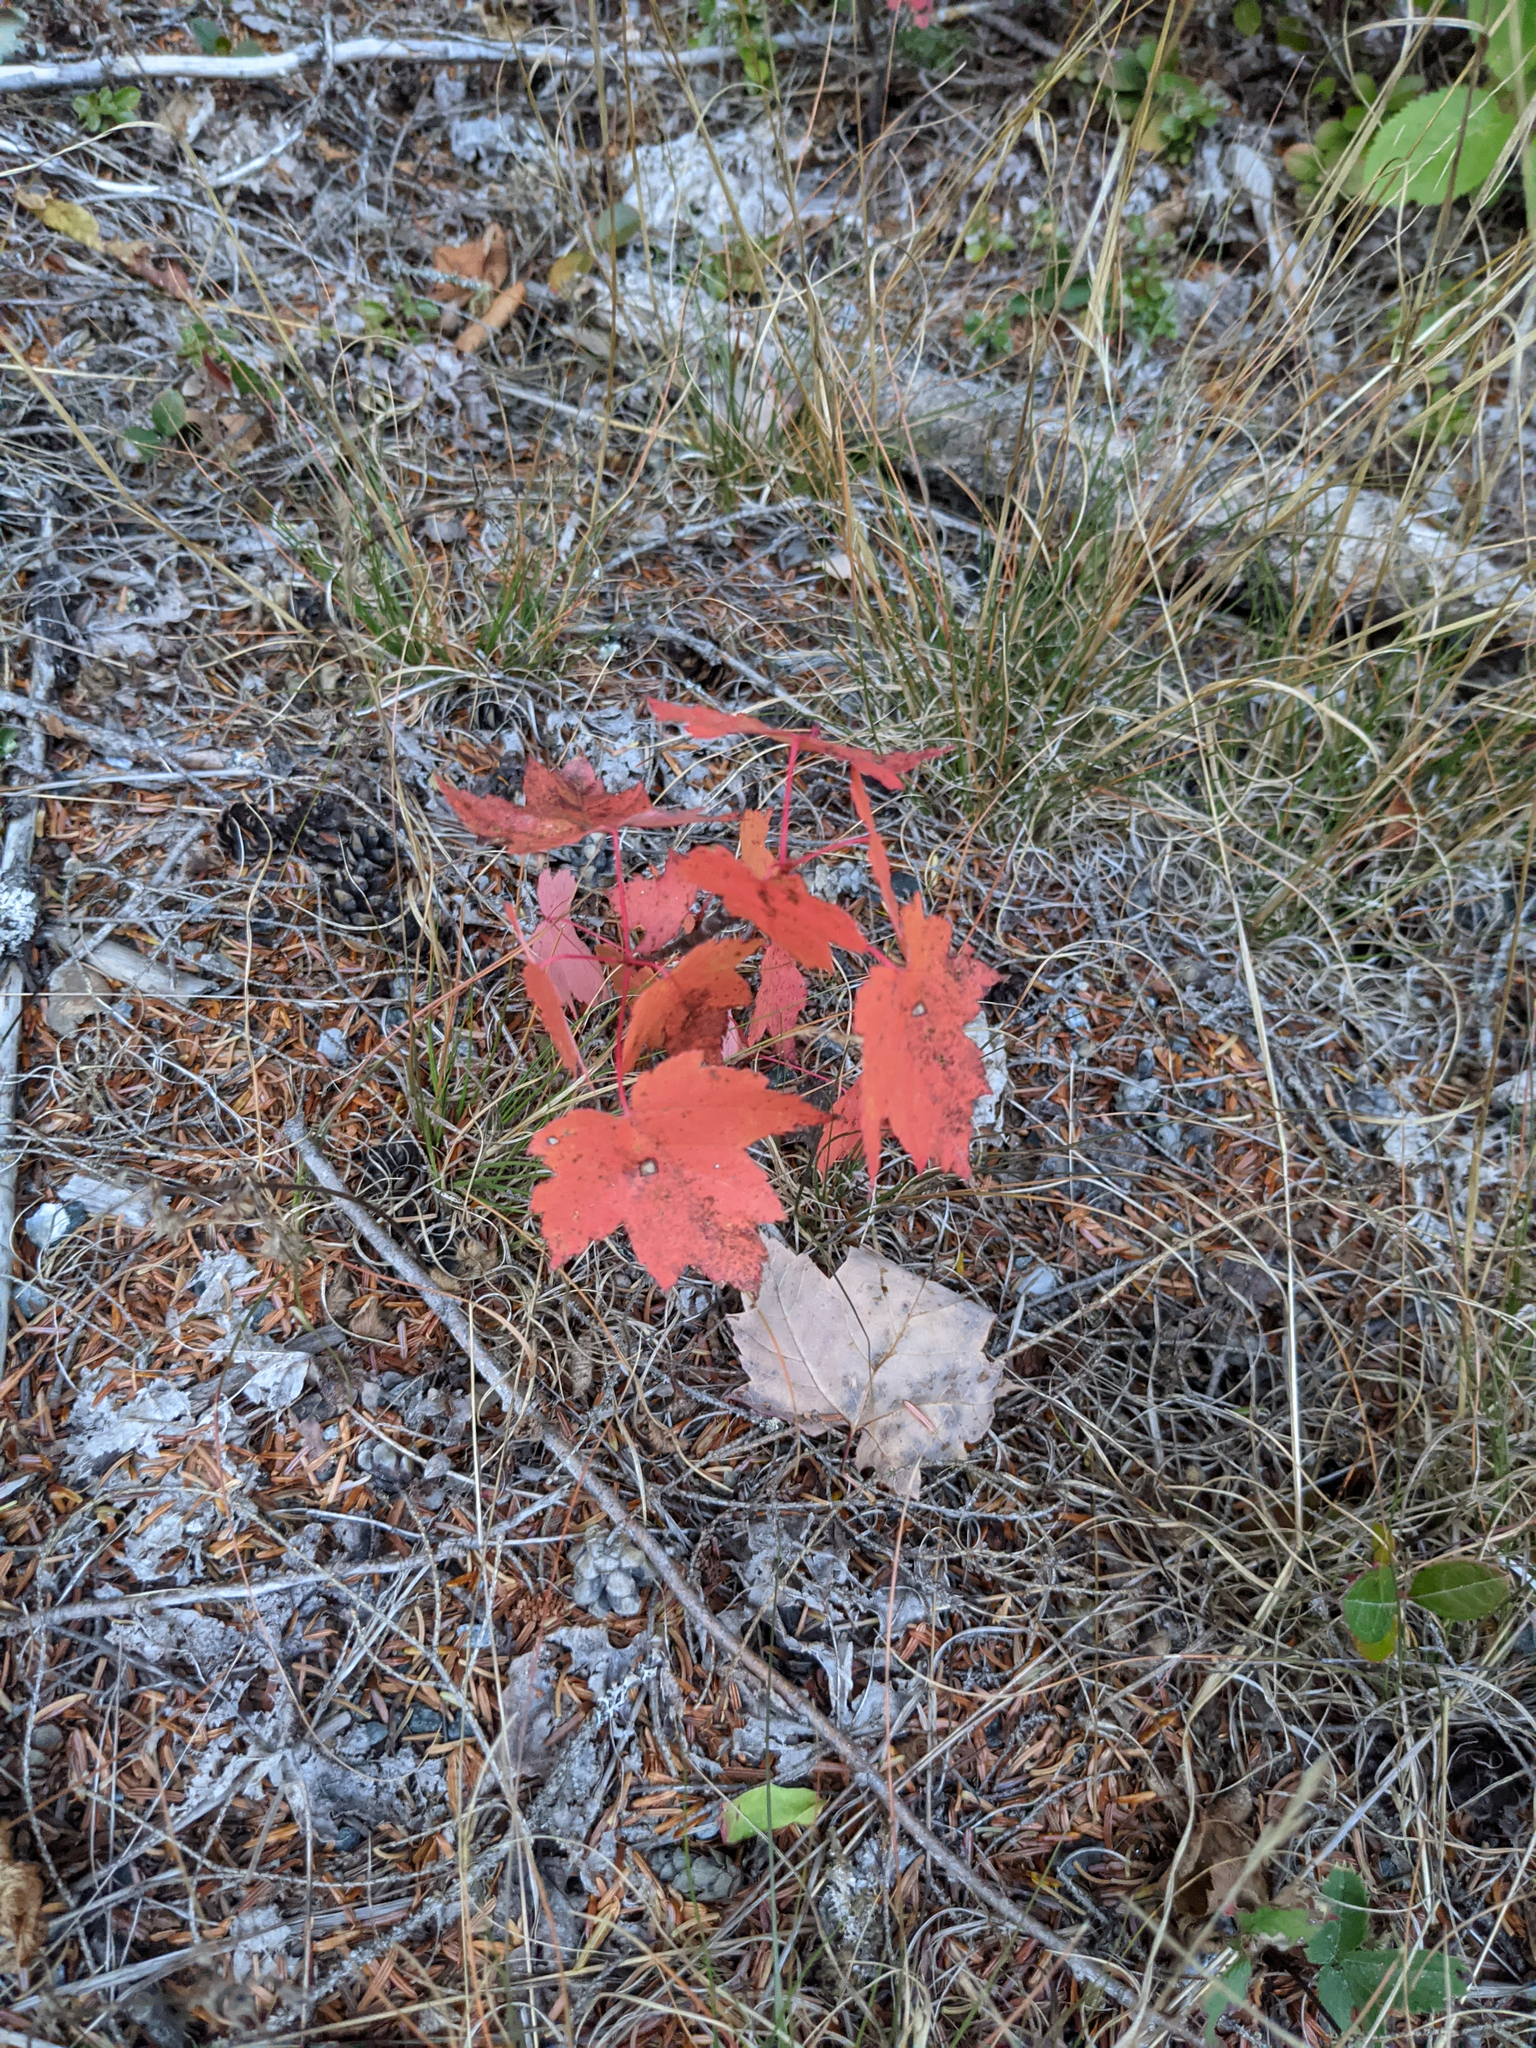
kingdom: Plantae
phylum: Tracheophyta
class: Magnoliopsida
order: Sapindales
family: Sapindaceae
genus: Acer
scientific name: Acer rubrum
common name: Red maple
